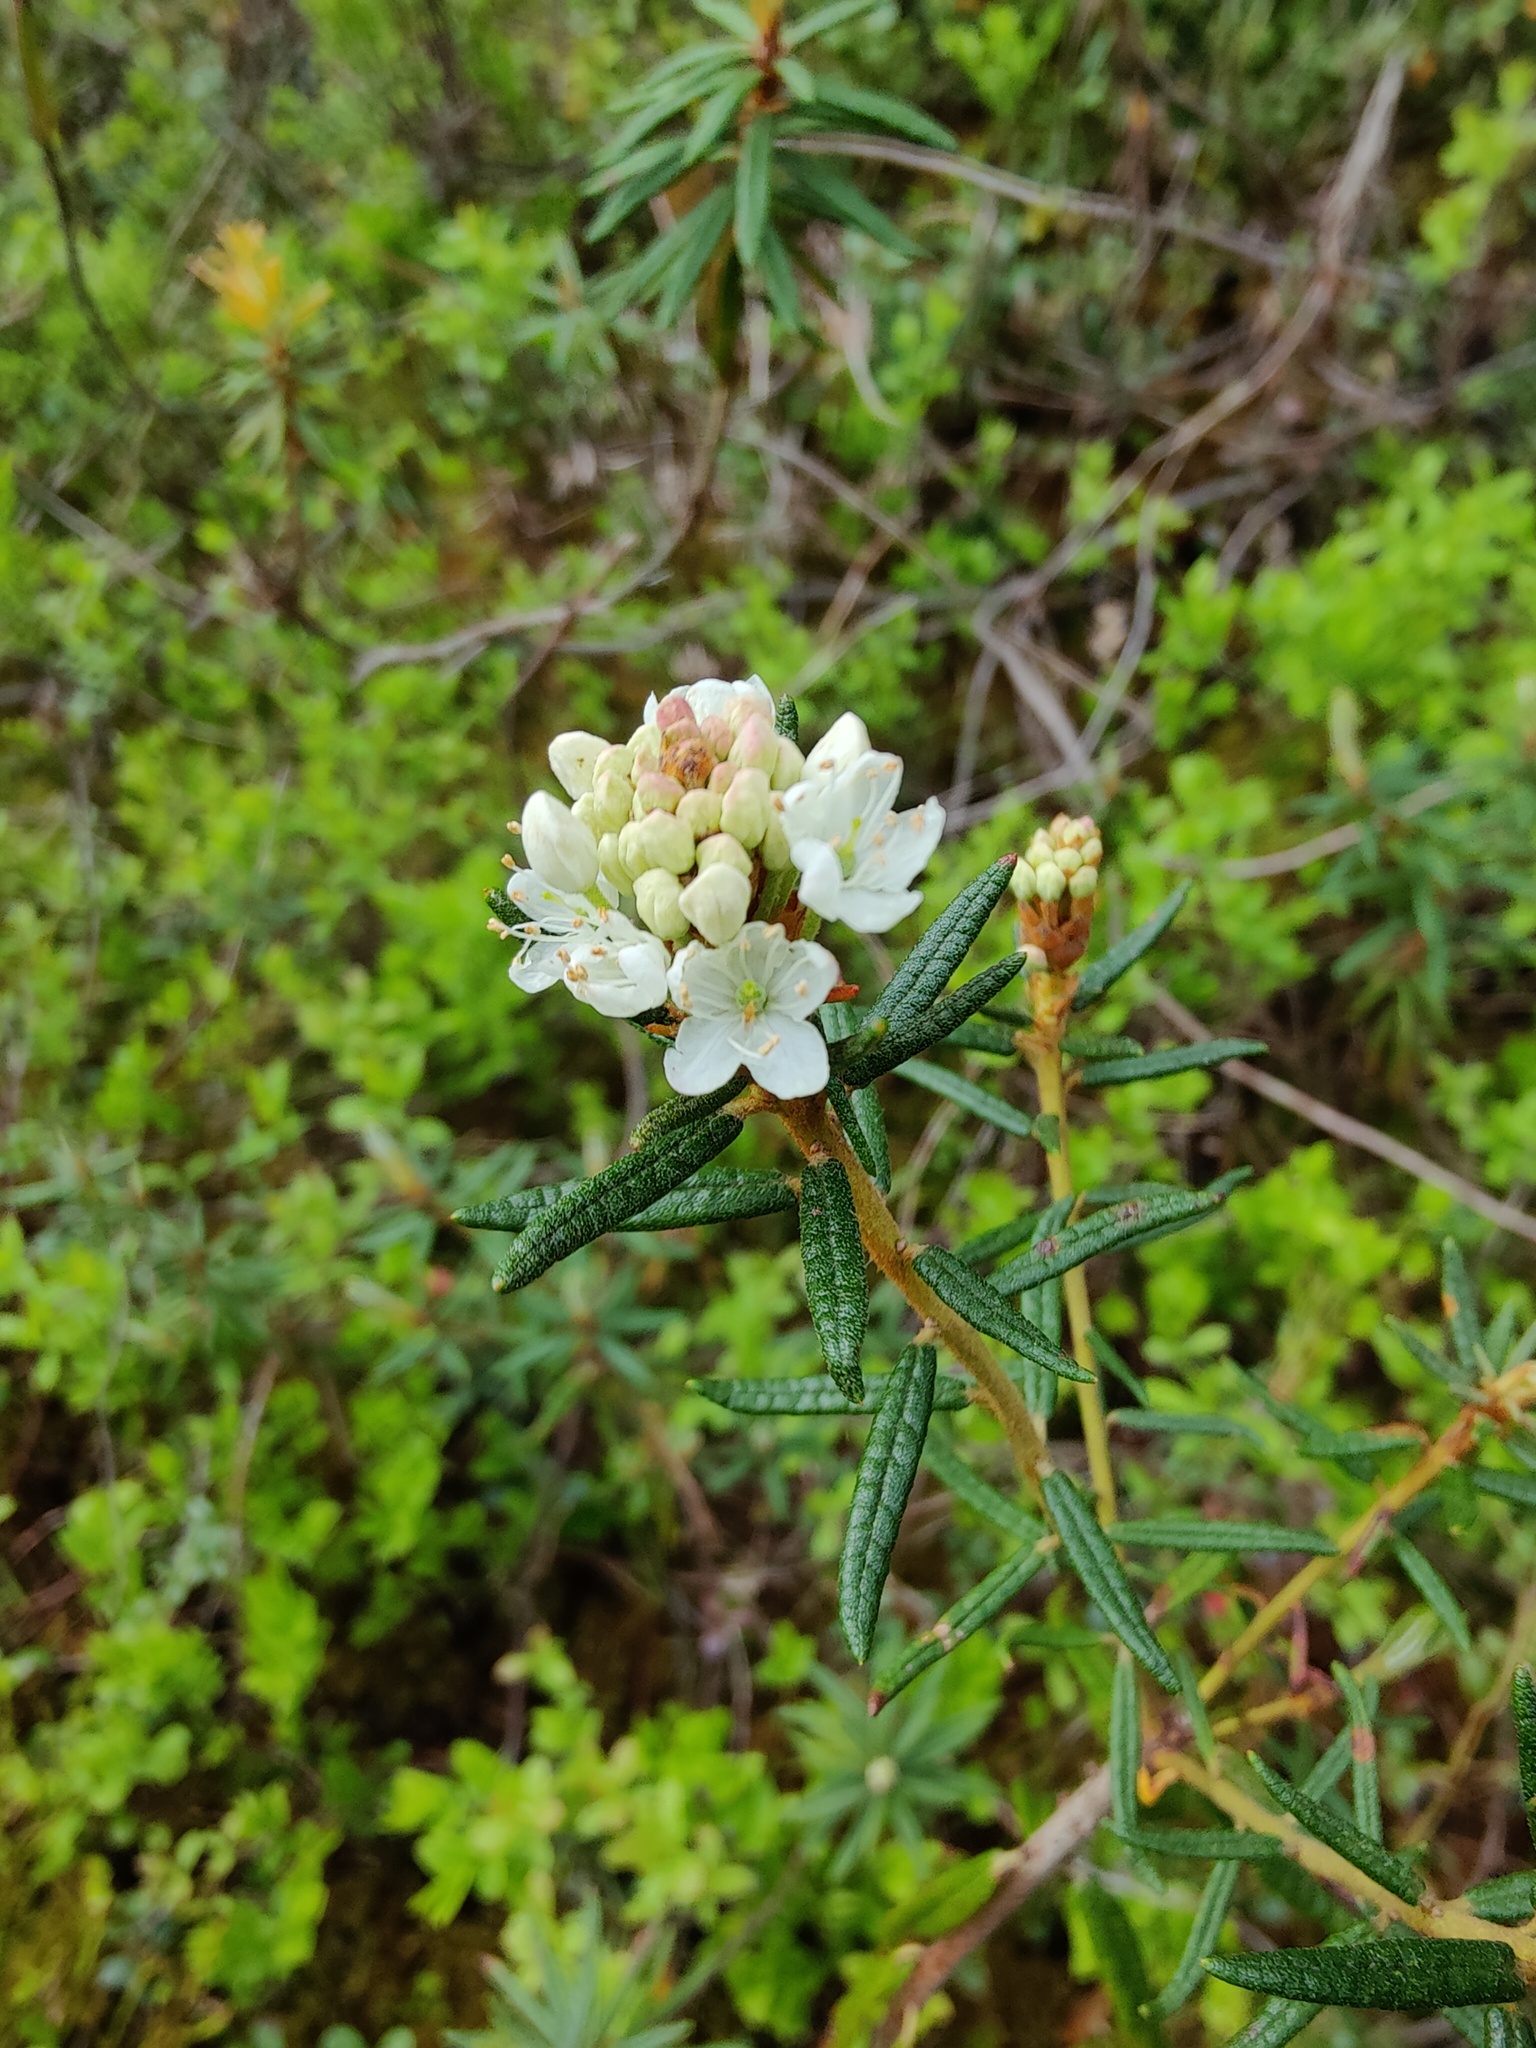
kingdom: Plantae
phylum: Tracheophyta
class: Magnoliopsida
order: Ericales
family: Ericaceae
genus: Rhododendron
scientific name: Rhododendron tomentosum
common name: Marsh labrador tea
